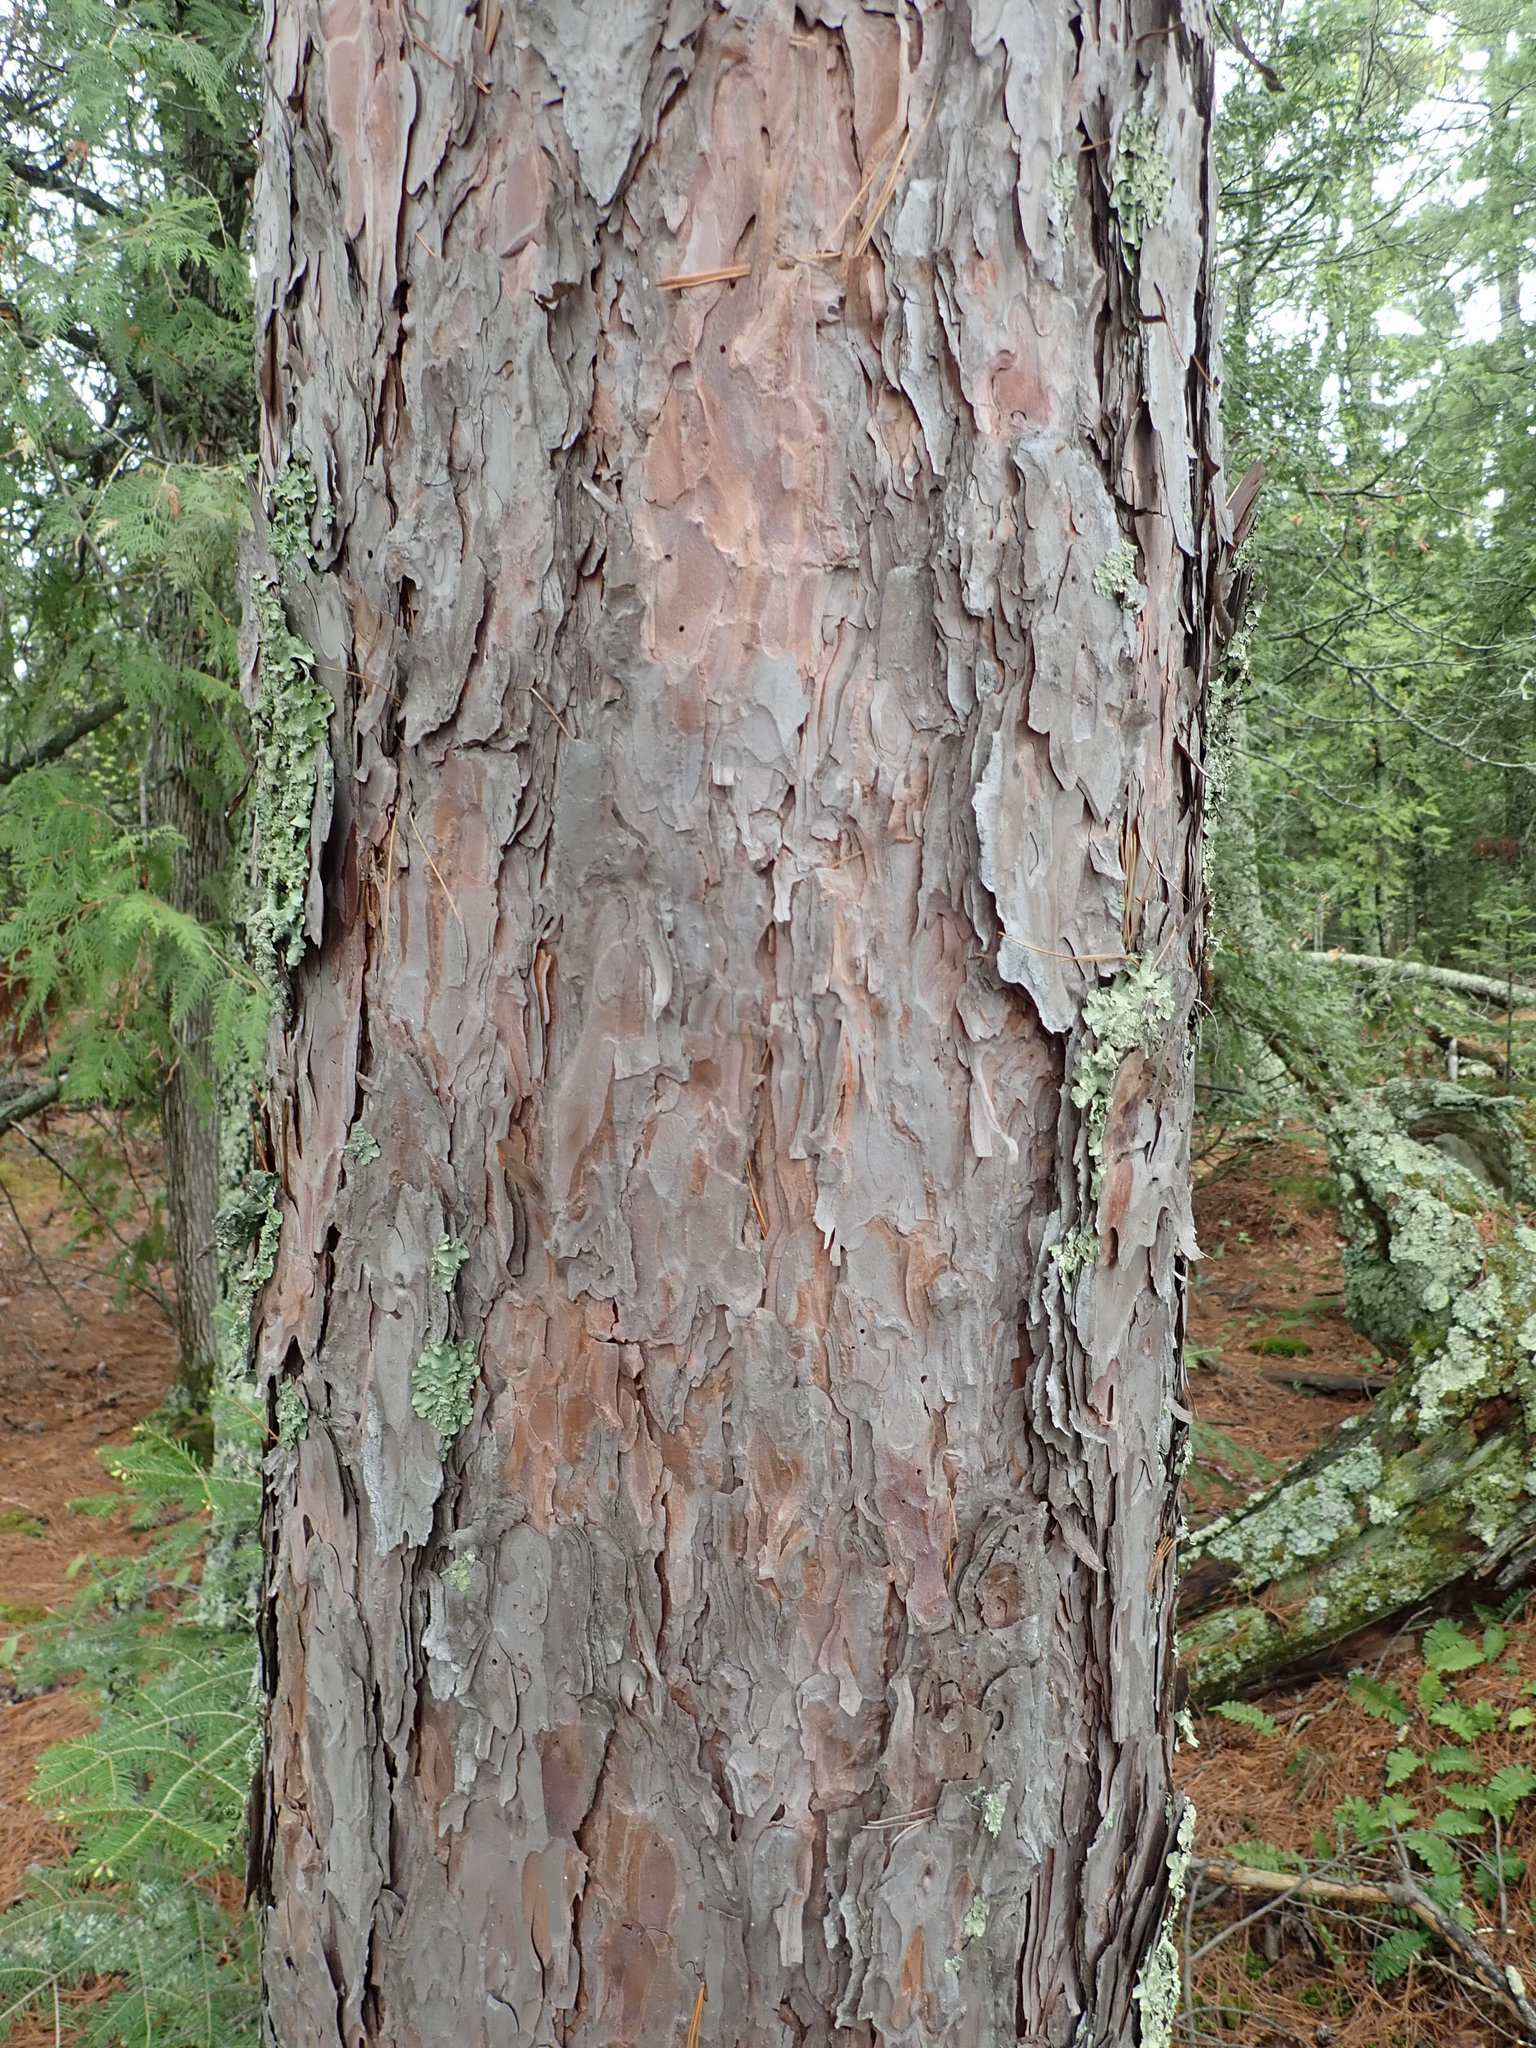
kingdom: Plantae
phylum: Tracheophyta
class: Pinopsida
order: Pinales
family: Pinaceae
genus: Pinus
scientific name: Pinus resinosa
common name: Norway pine
